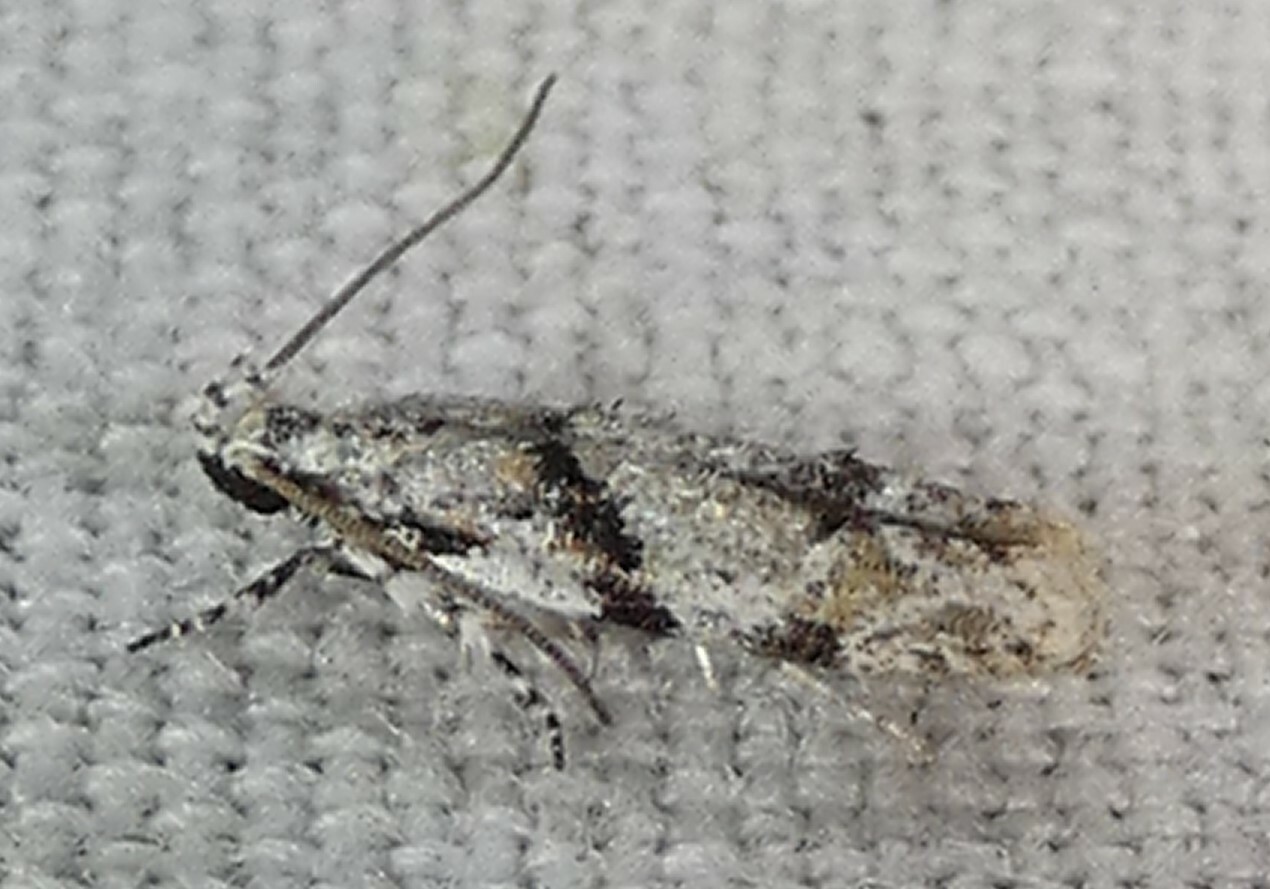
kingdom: Animalia
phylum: Arthropoda
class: Insecta
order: Lepidoptera
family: Gelechiidae
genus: Arogalea
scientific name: Arogalea cristifasciella
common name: White stripe-backed moth
